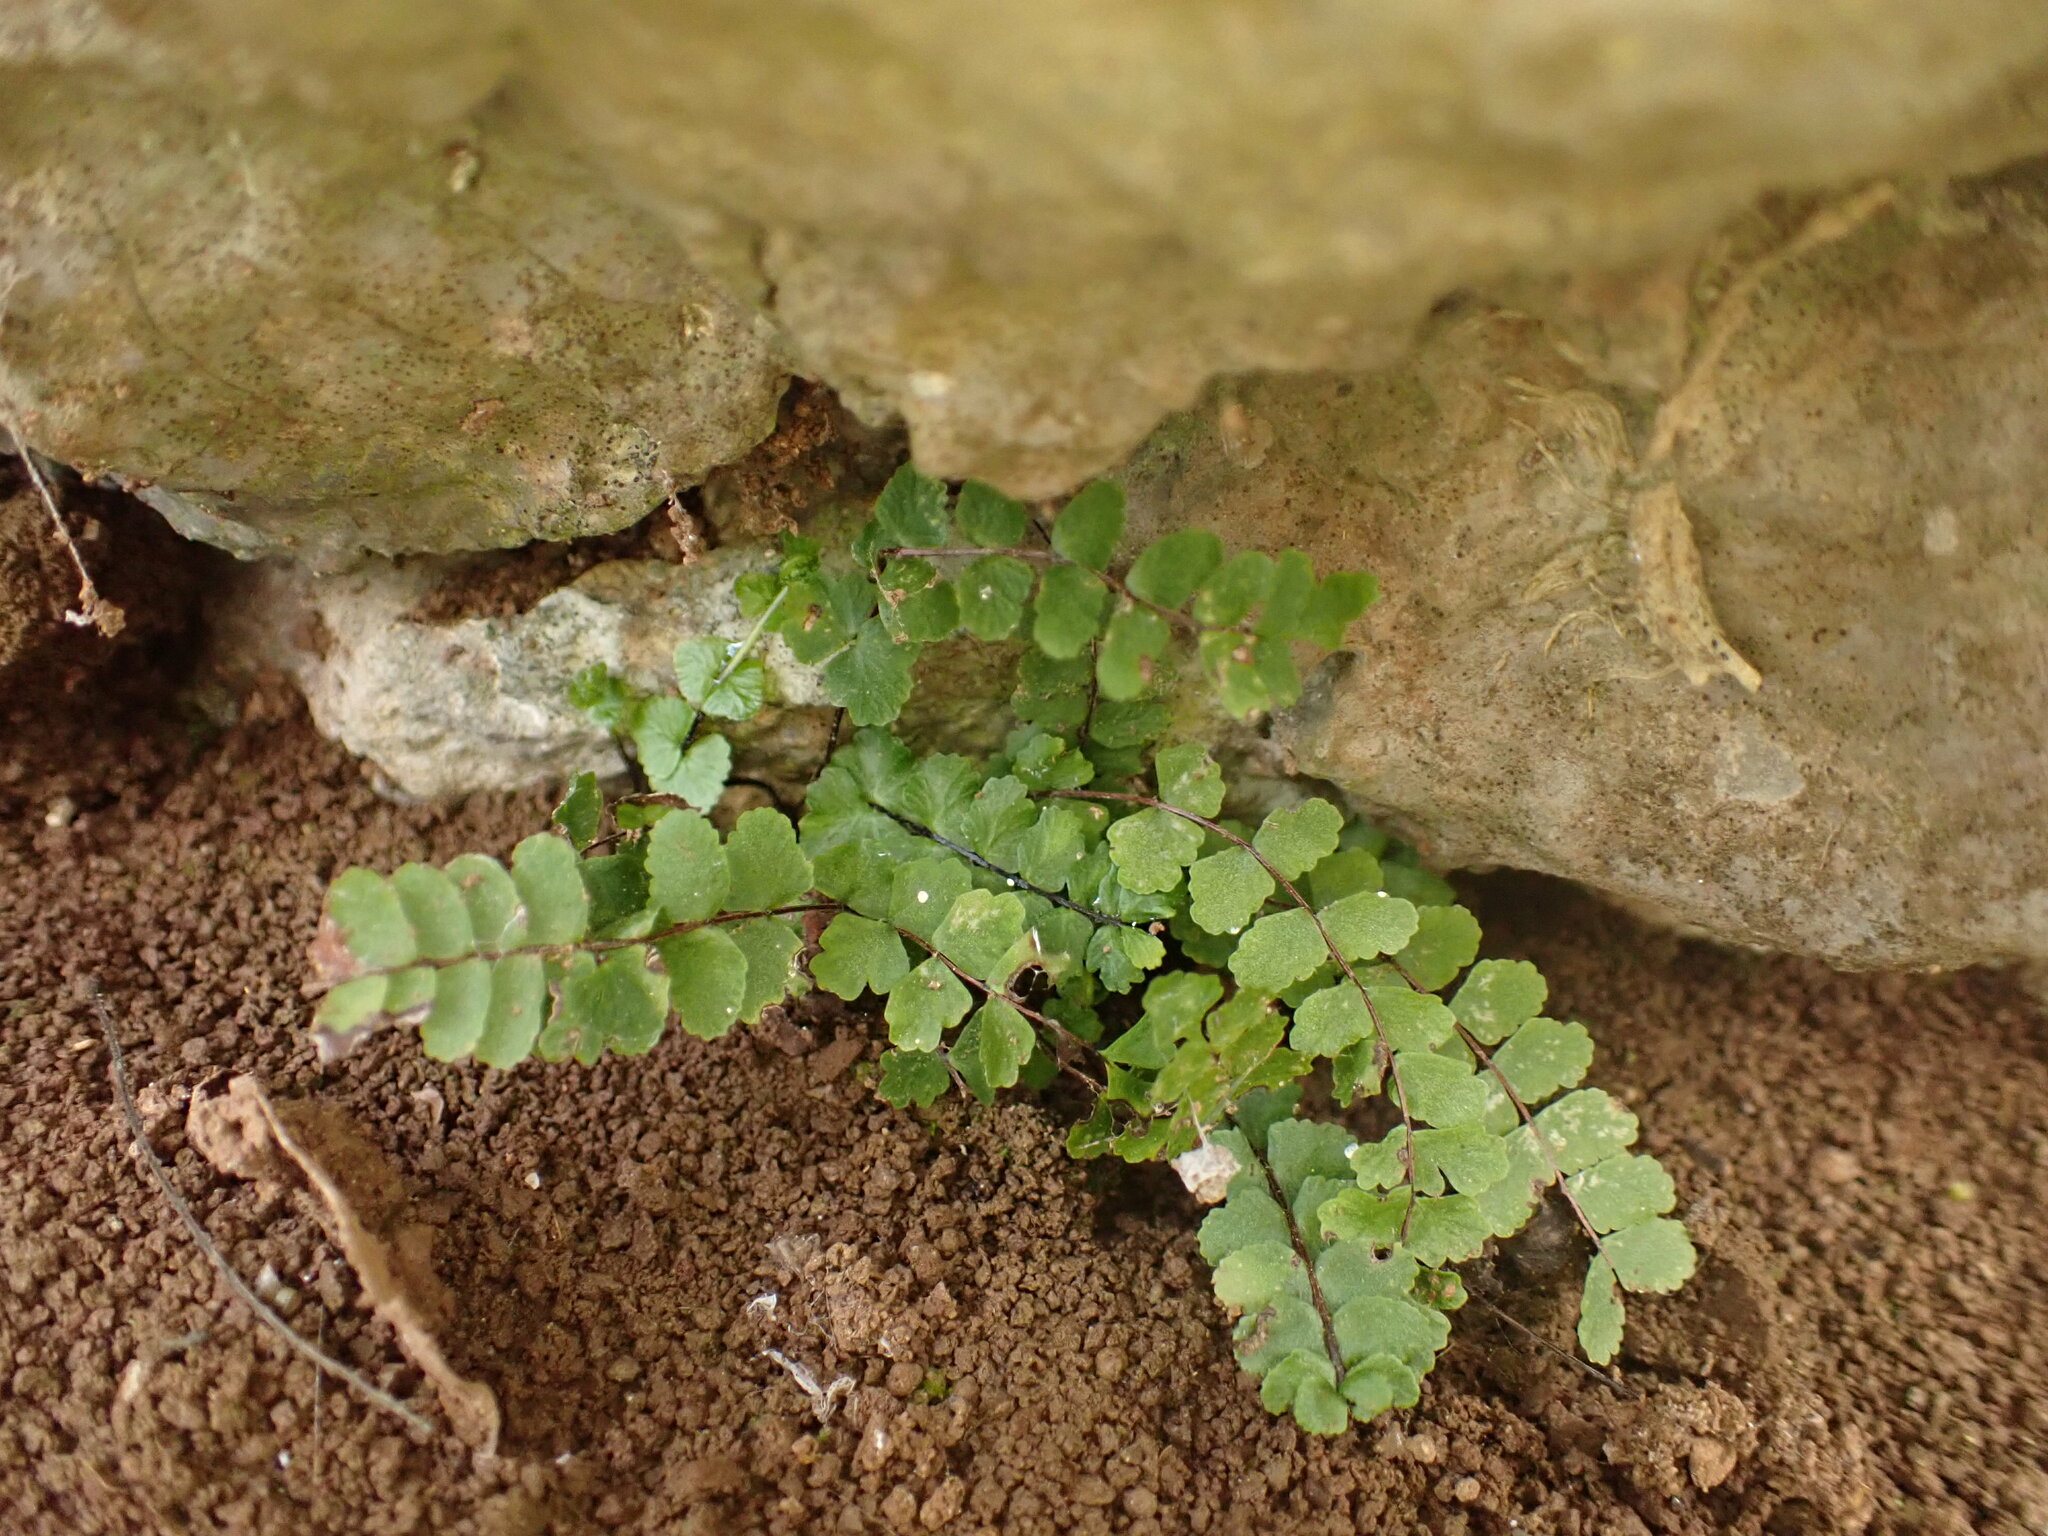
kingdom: Plantae
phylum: Tracheophyta
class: Polypodiopsida
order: Polypodiales
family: Aspleniaceae
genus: Asplenium
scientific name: Asplenium trichomanes
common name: Maidenhair spleenwort
